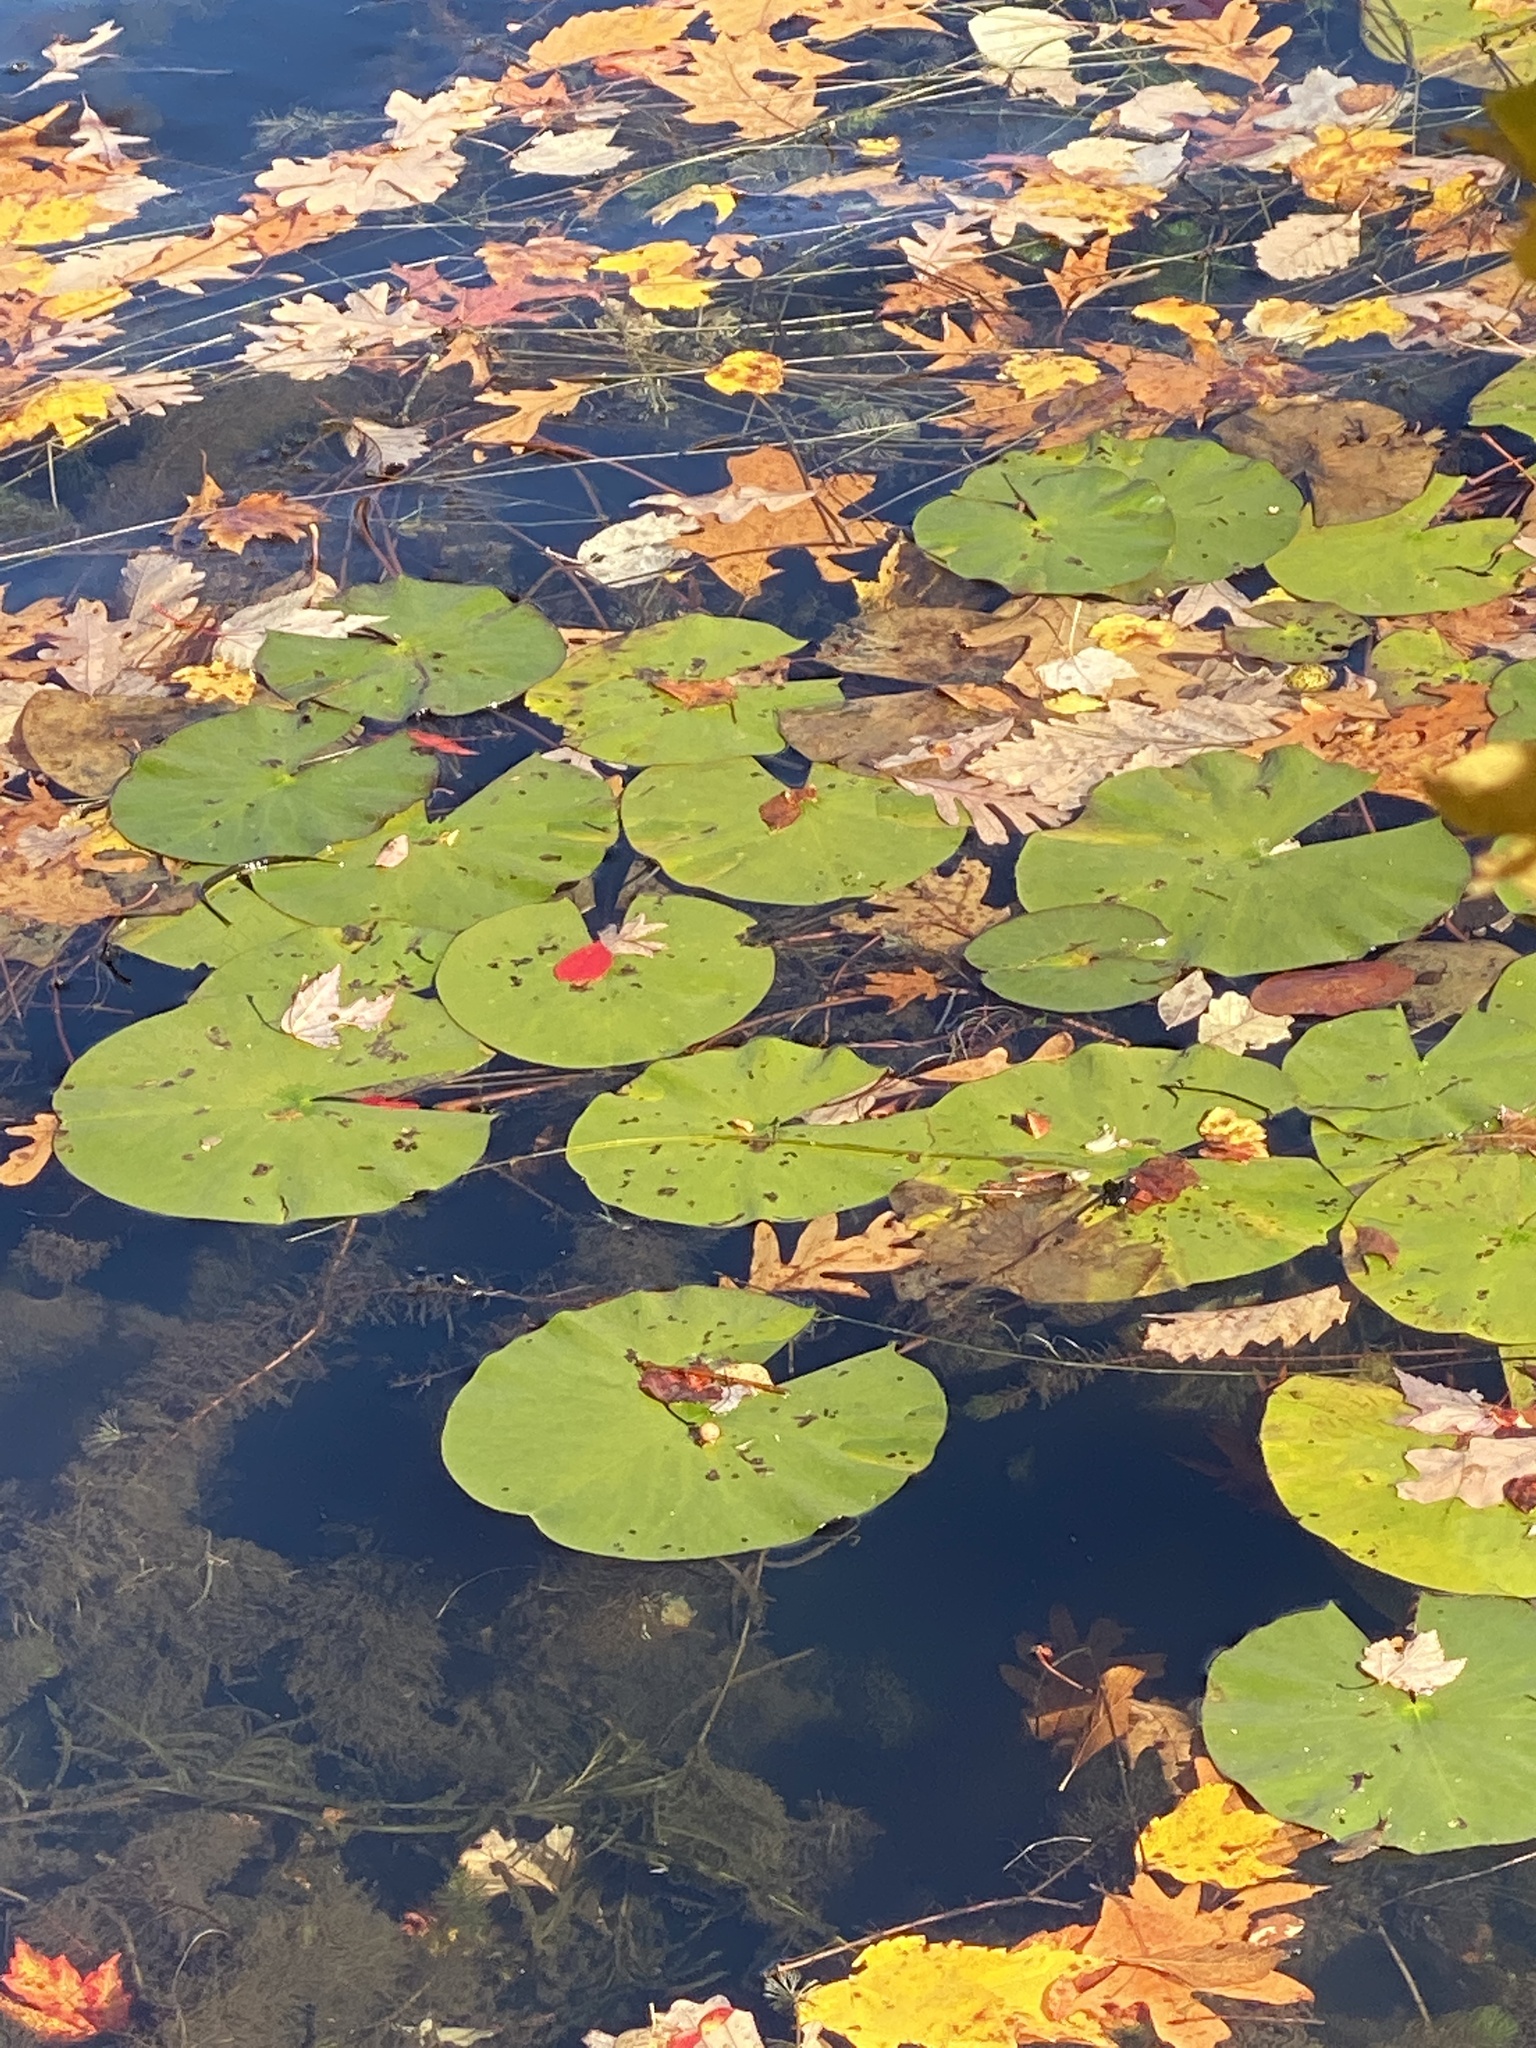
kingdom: Plantae
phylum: Tracheophyta
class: Magnoliopsida
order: Nymphaeales
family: Nymphaeaceae
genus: Nymphaea
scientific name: Nymphaea odorata
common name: Fragrant water-lily
